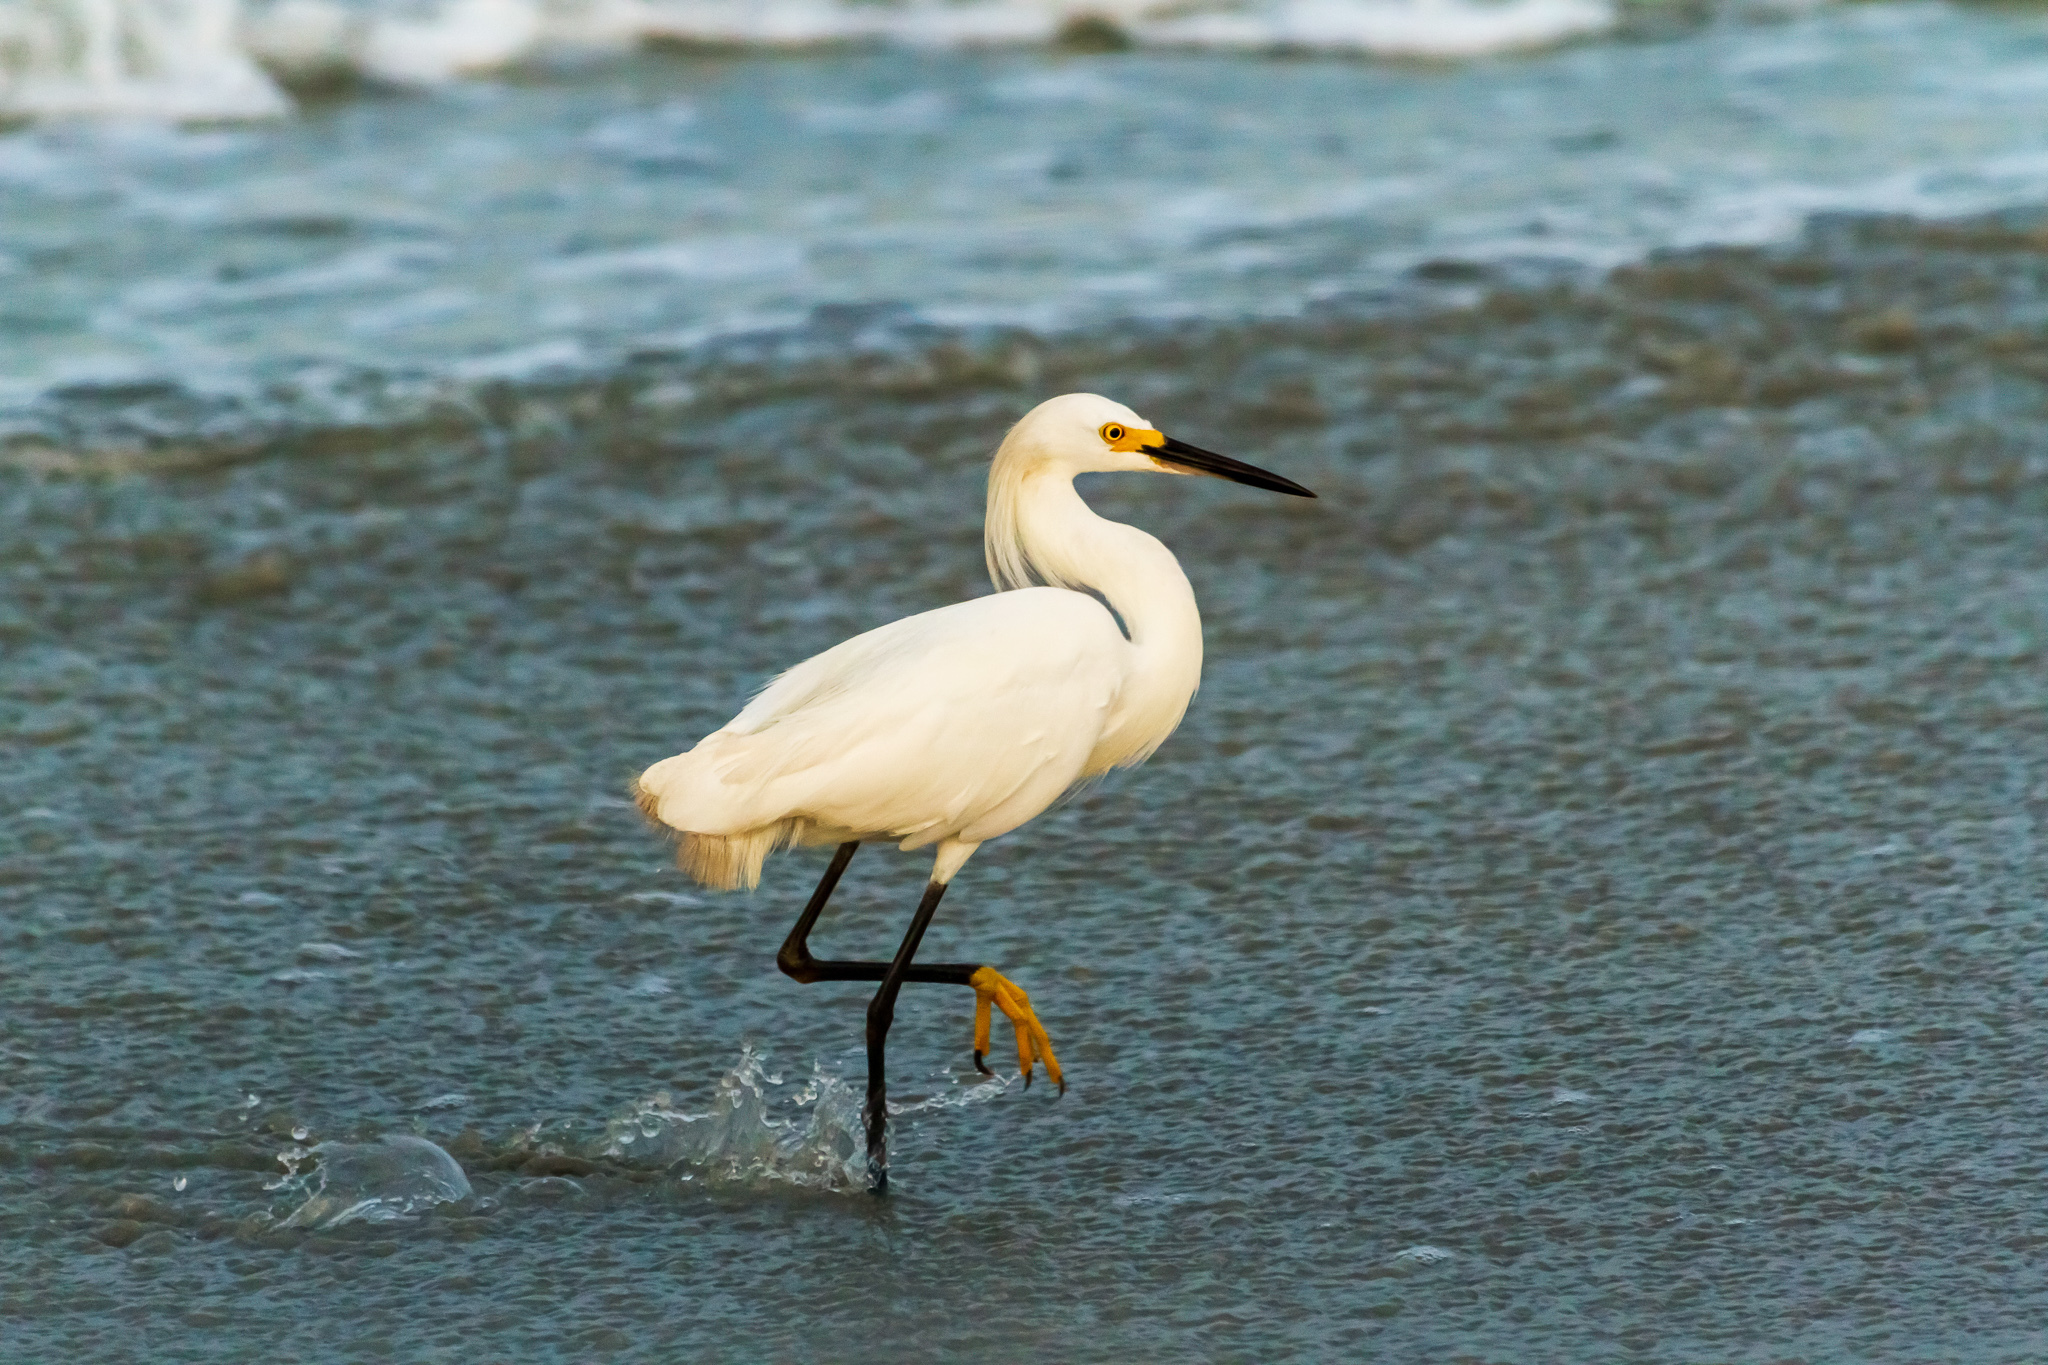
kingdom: Animalia
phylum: Chordata
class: Aves
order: Pelecaniformes
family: Ardeidae
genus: Egretta
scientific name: Egretta thula
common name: Snowy egret
